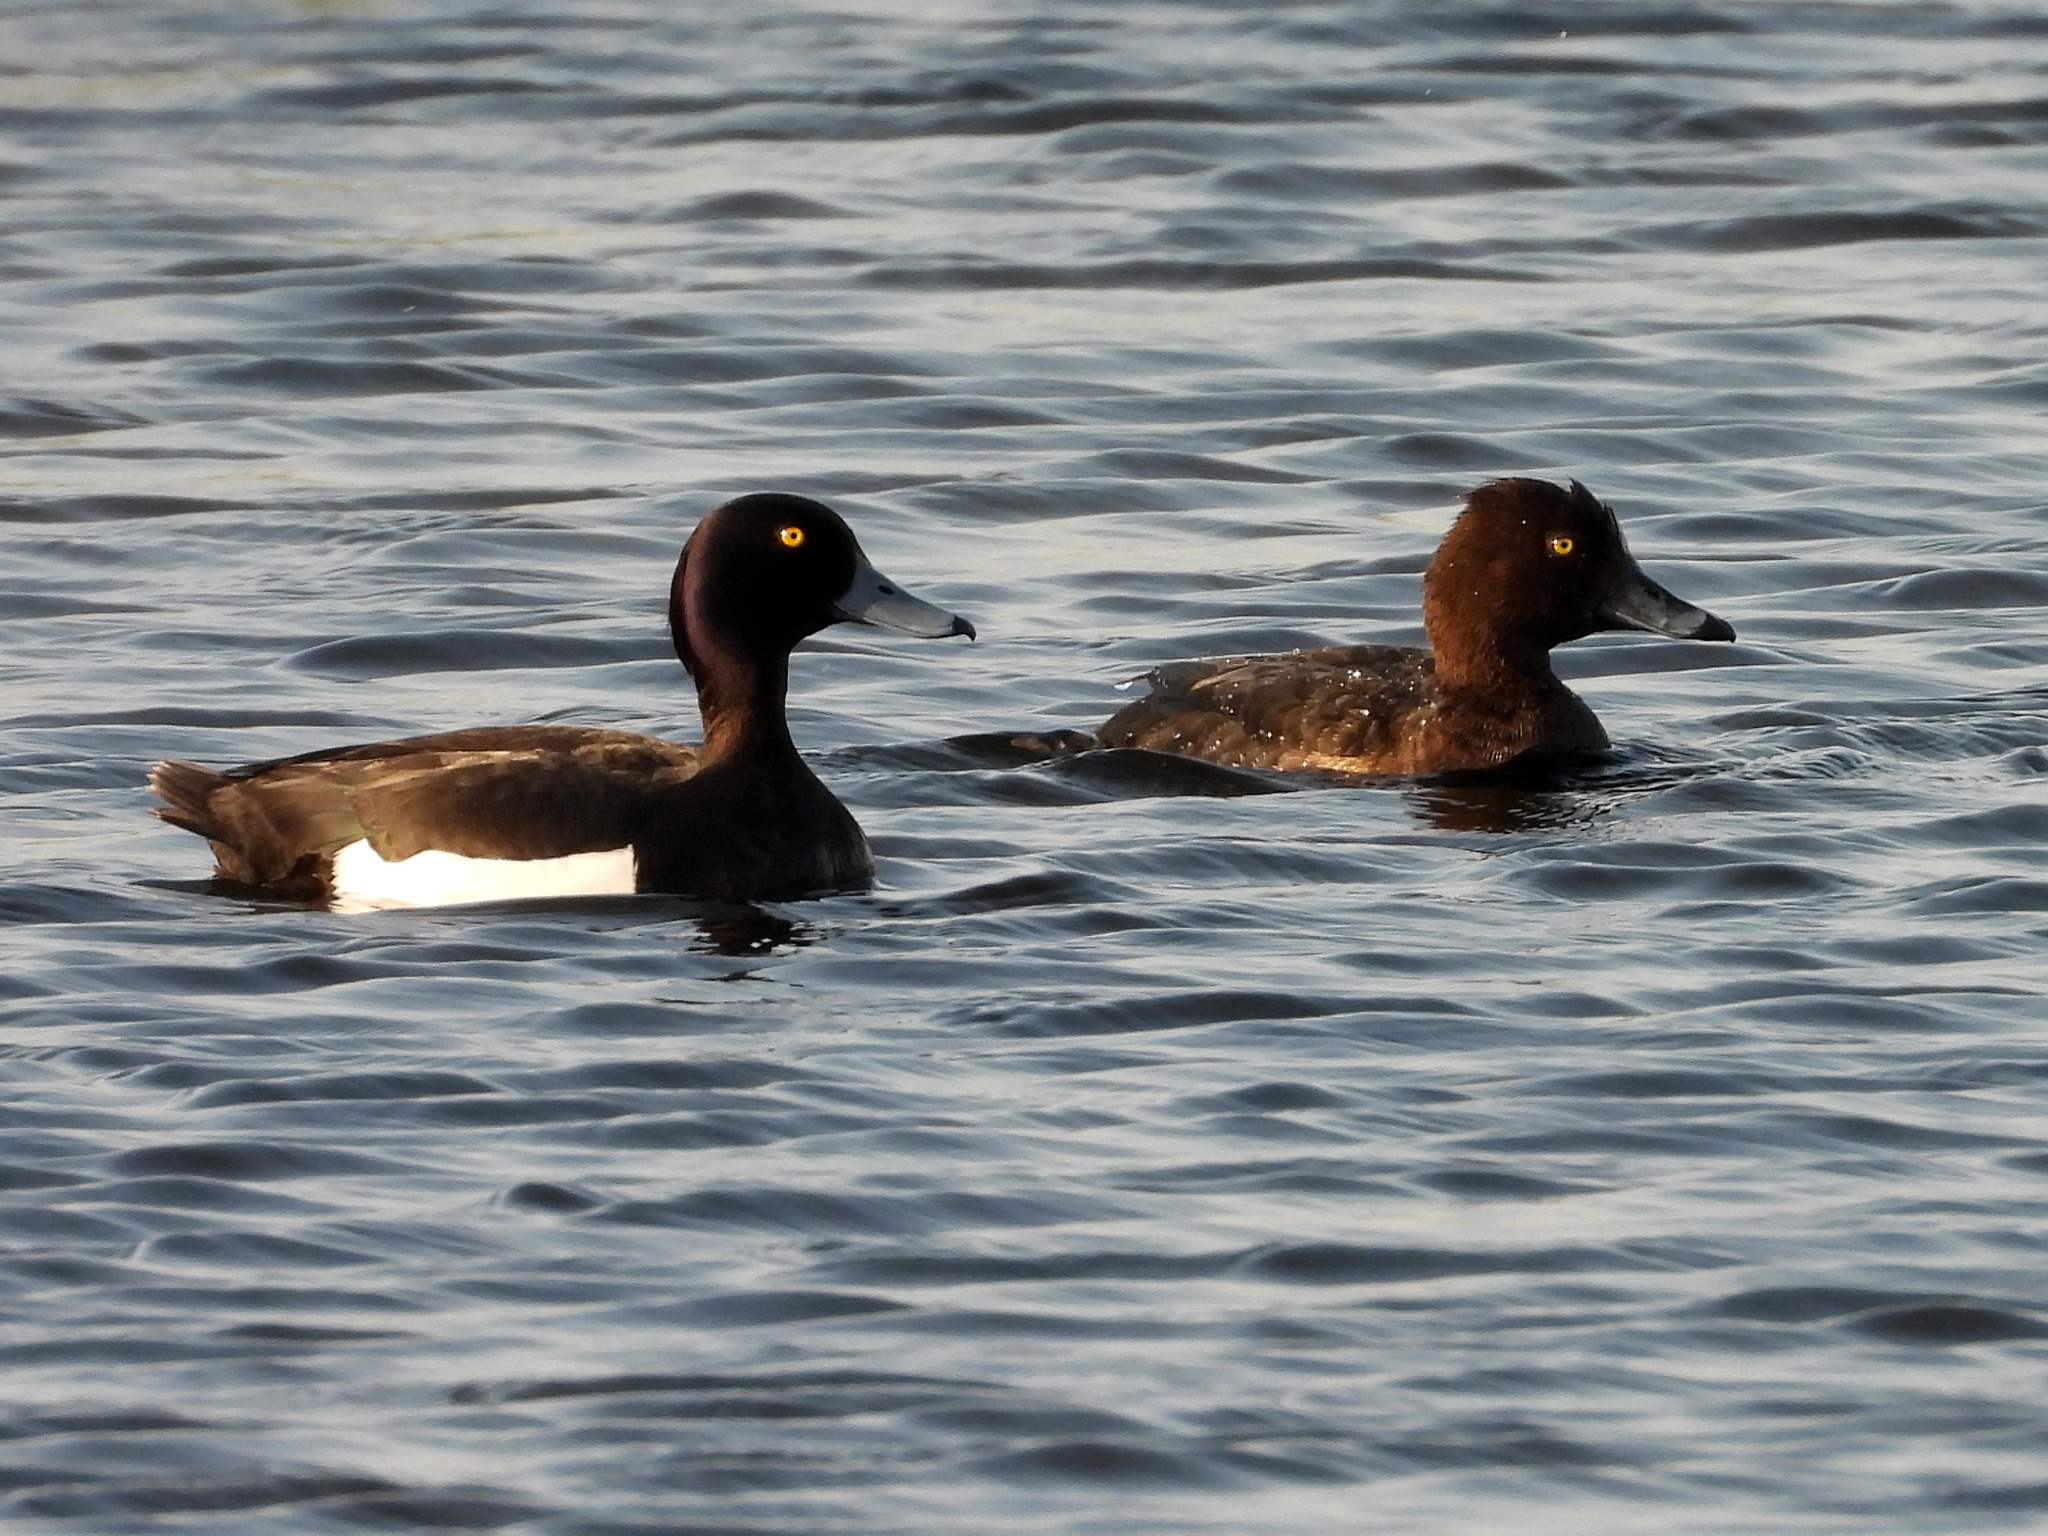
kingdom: Animalia
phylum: Chordata
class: Aves
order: Anseriformes
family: Anatidae
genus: Aythya
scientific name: Aythya fuligula
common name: Tufted duck
